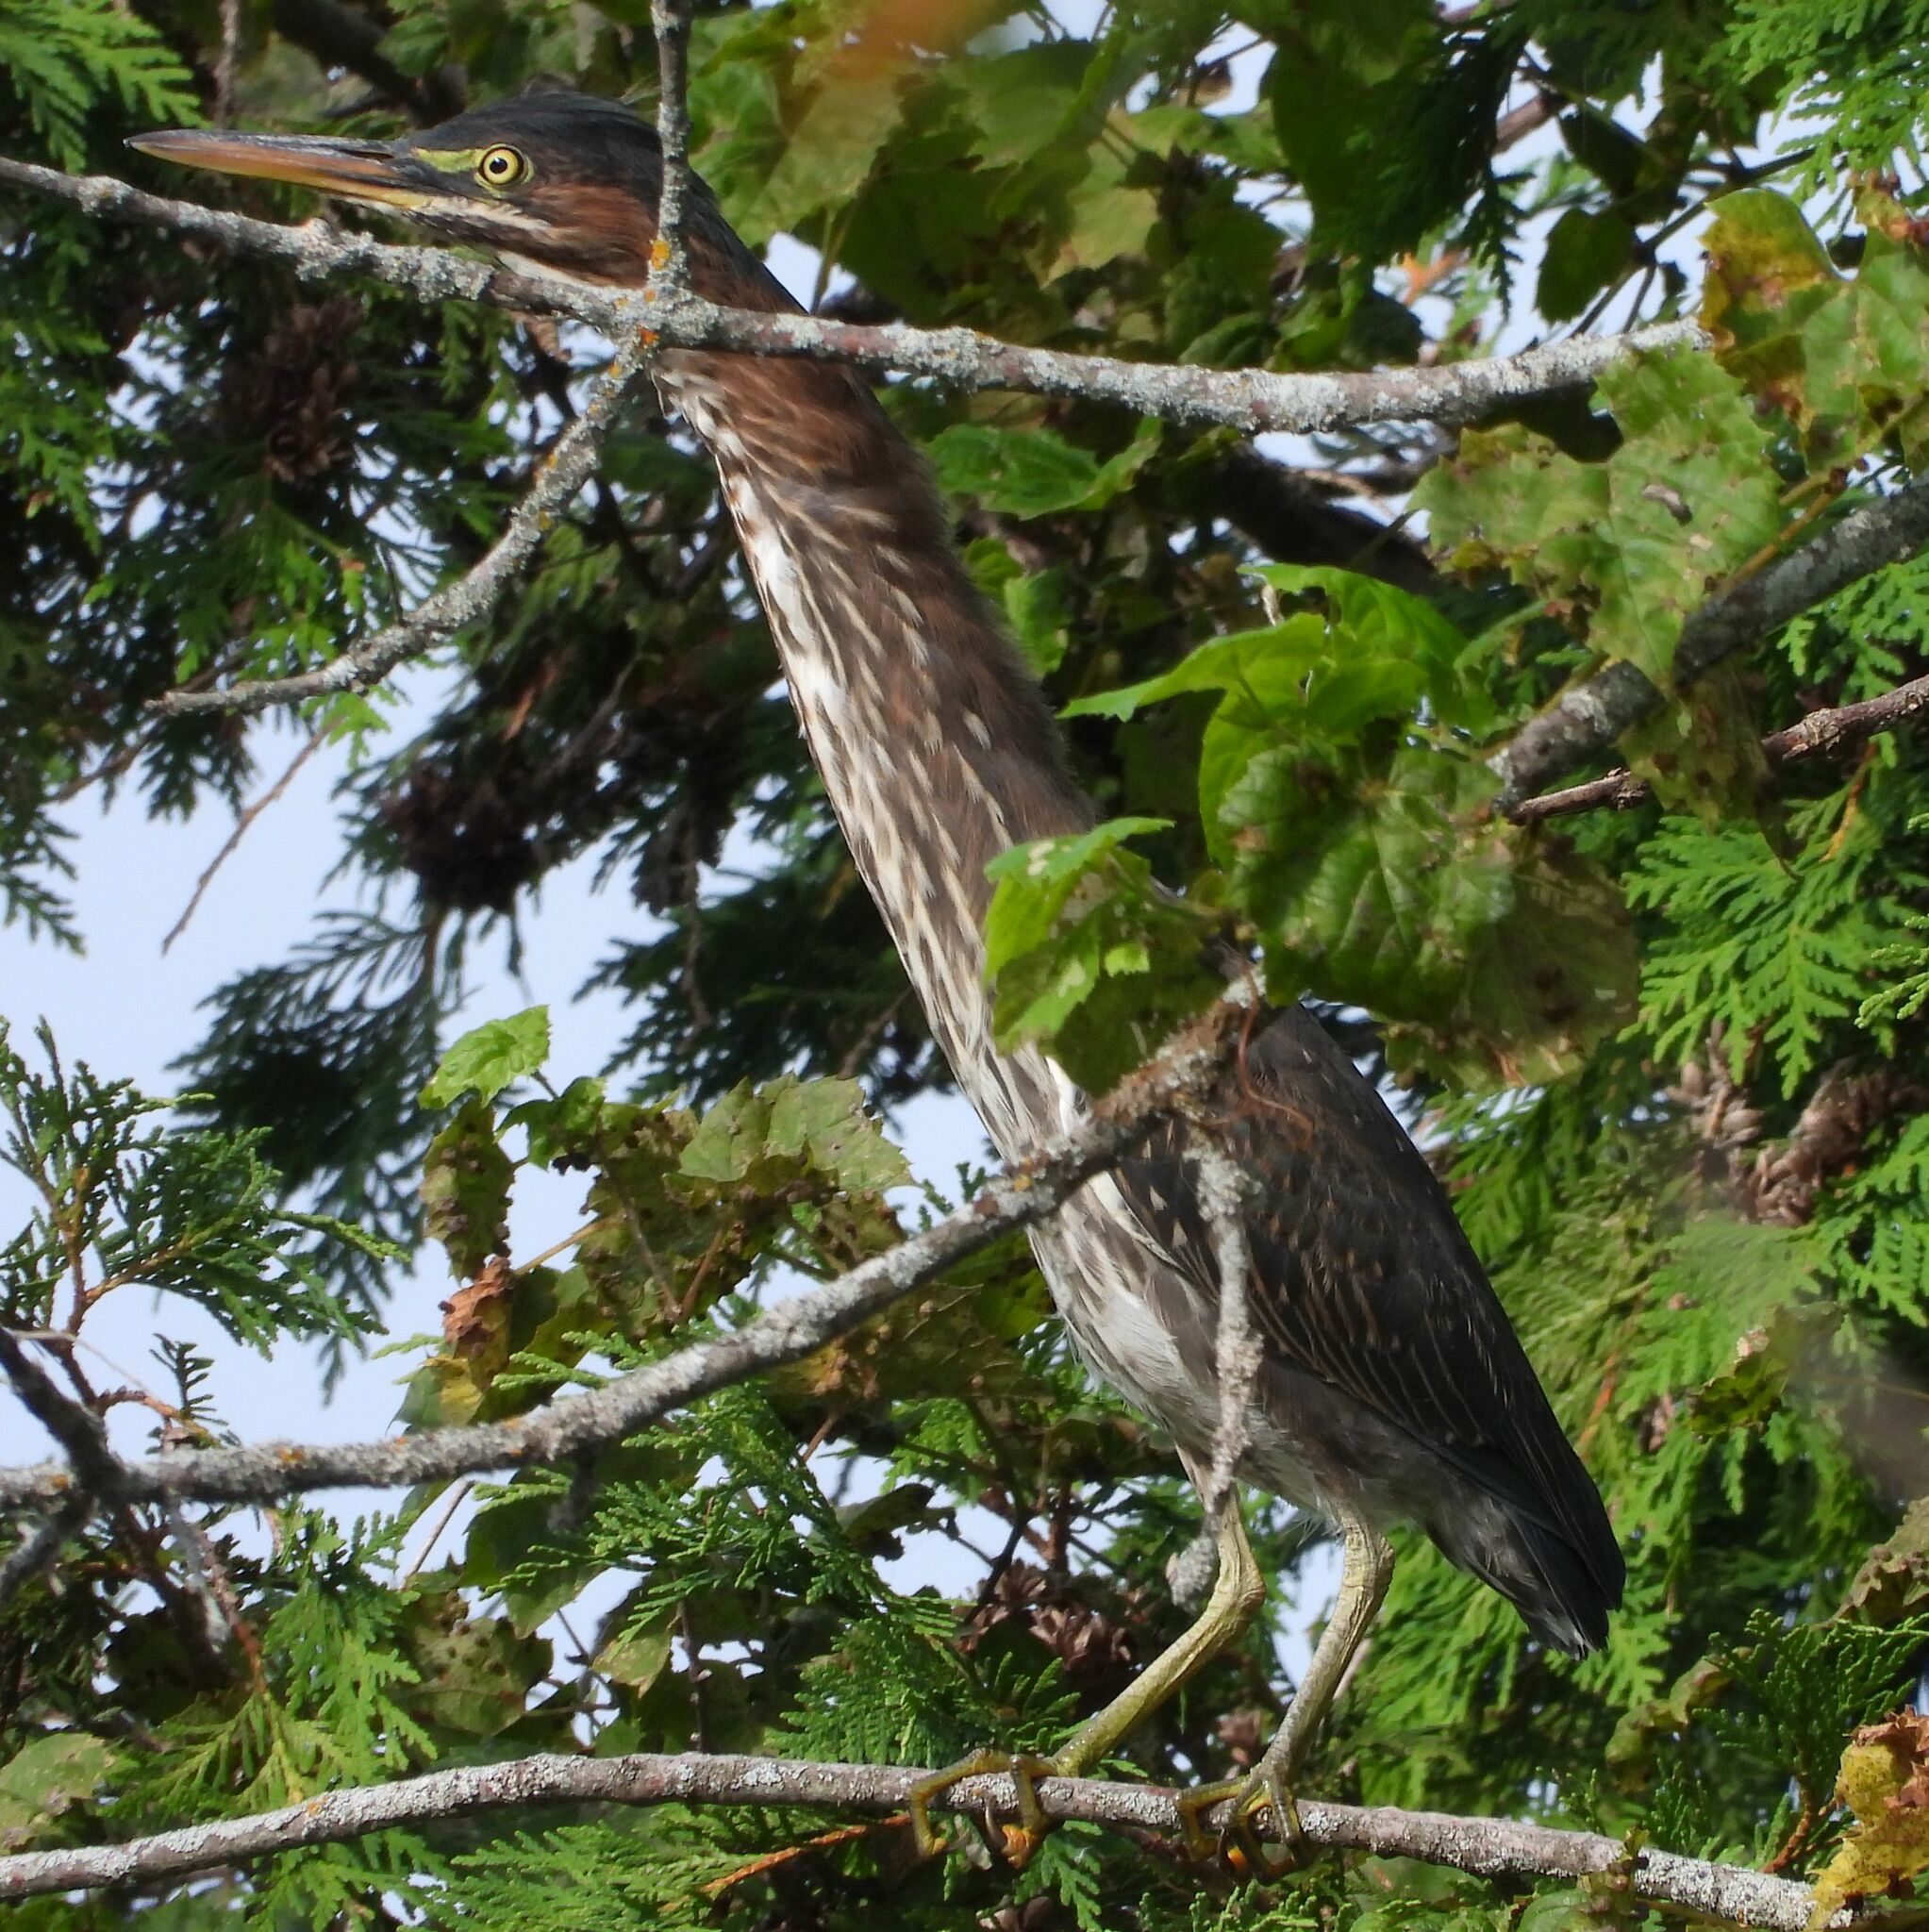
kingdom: Animalia
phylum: Chordata
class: Aves
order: Pelecaniformes
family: Ardeidae
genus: Butorides
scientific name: Butorides virescens
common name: Green heron
